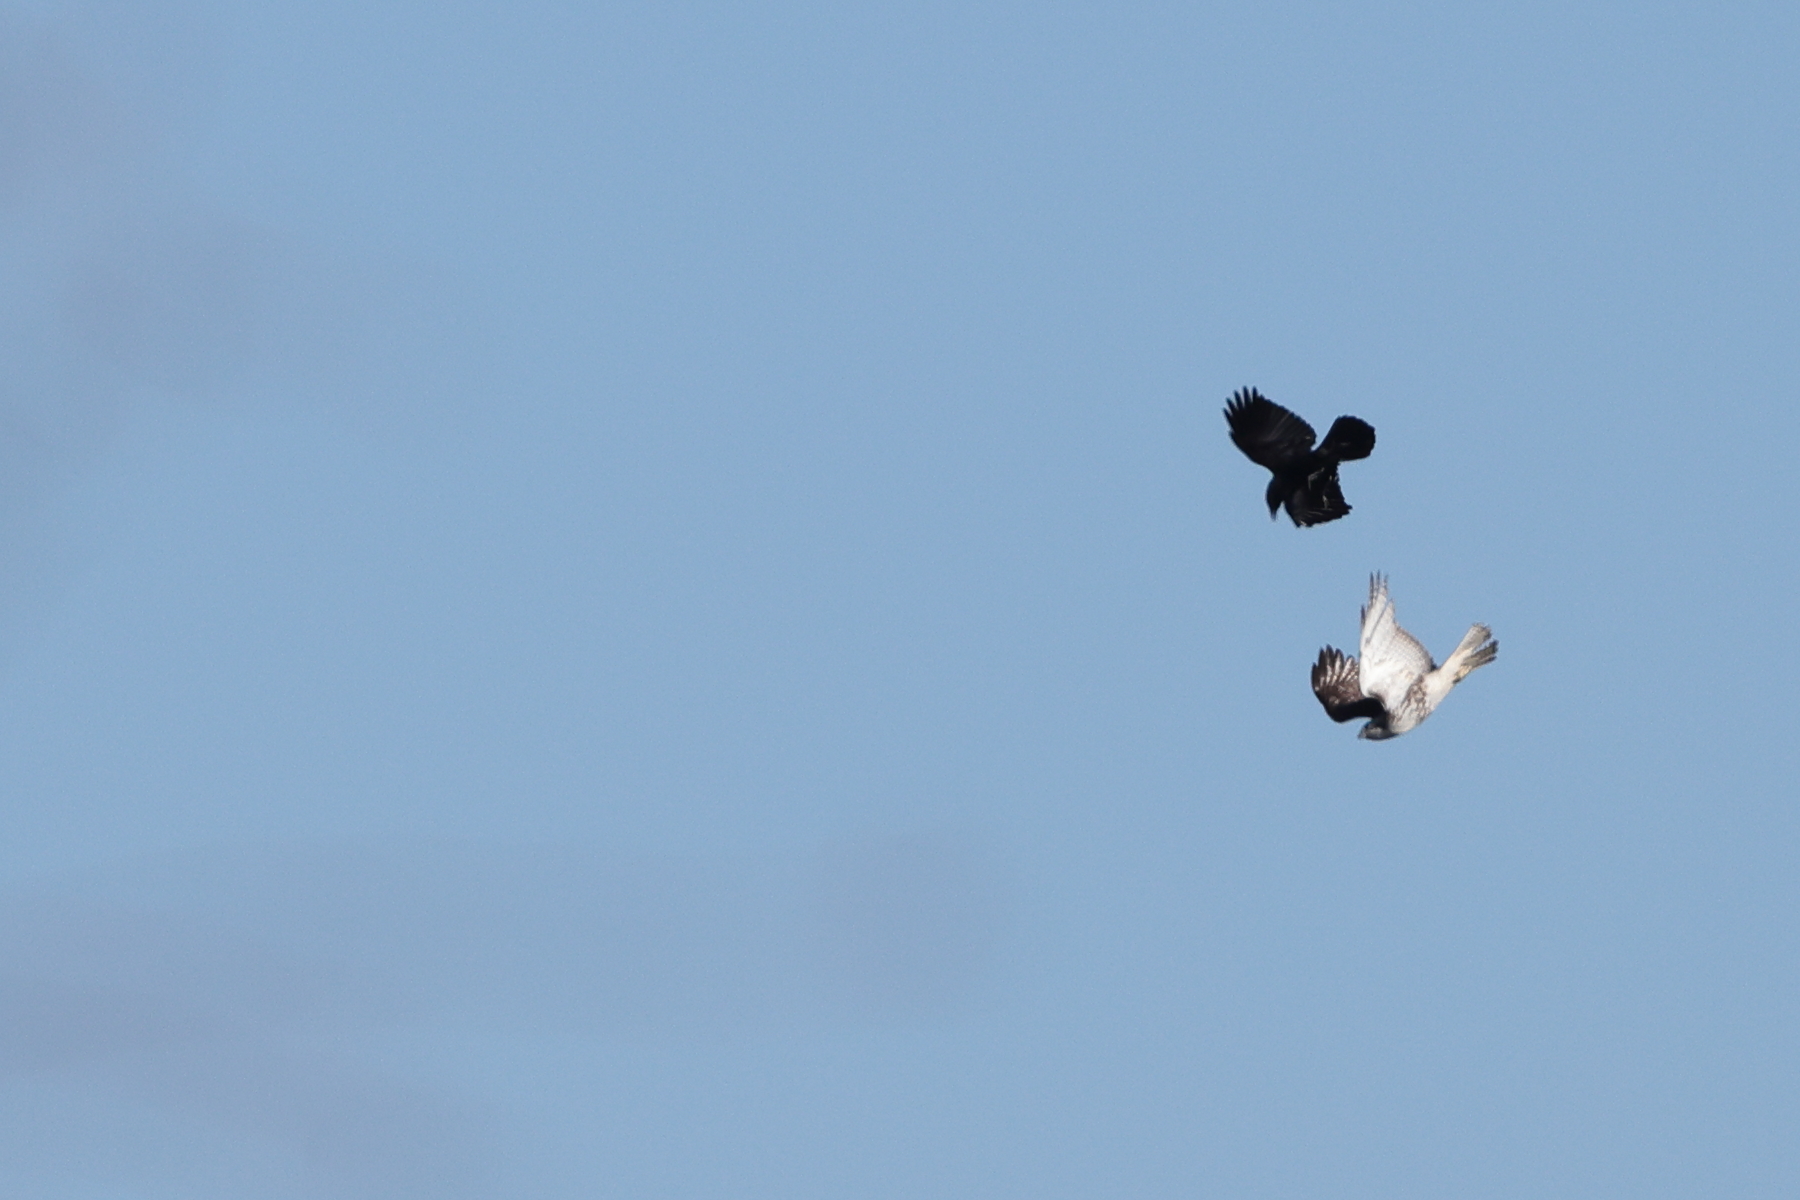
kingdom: Animalia
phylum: Chordata
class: Aves
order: Passeriformes
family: Corvidae
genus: Corvus
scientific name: Corvus corax
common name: Common raven
